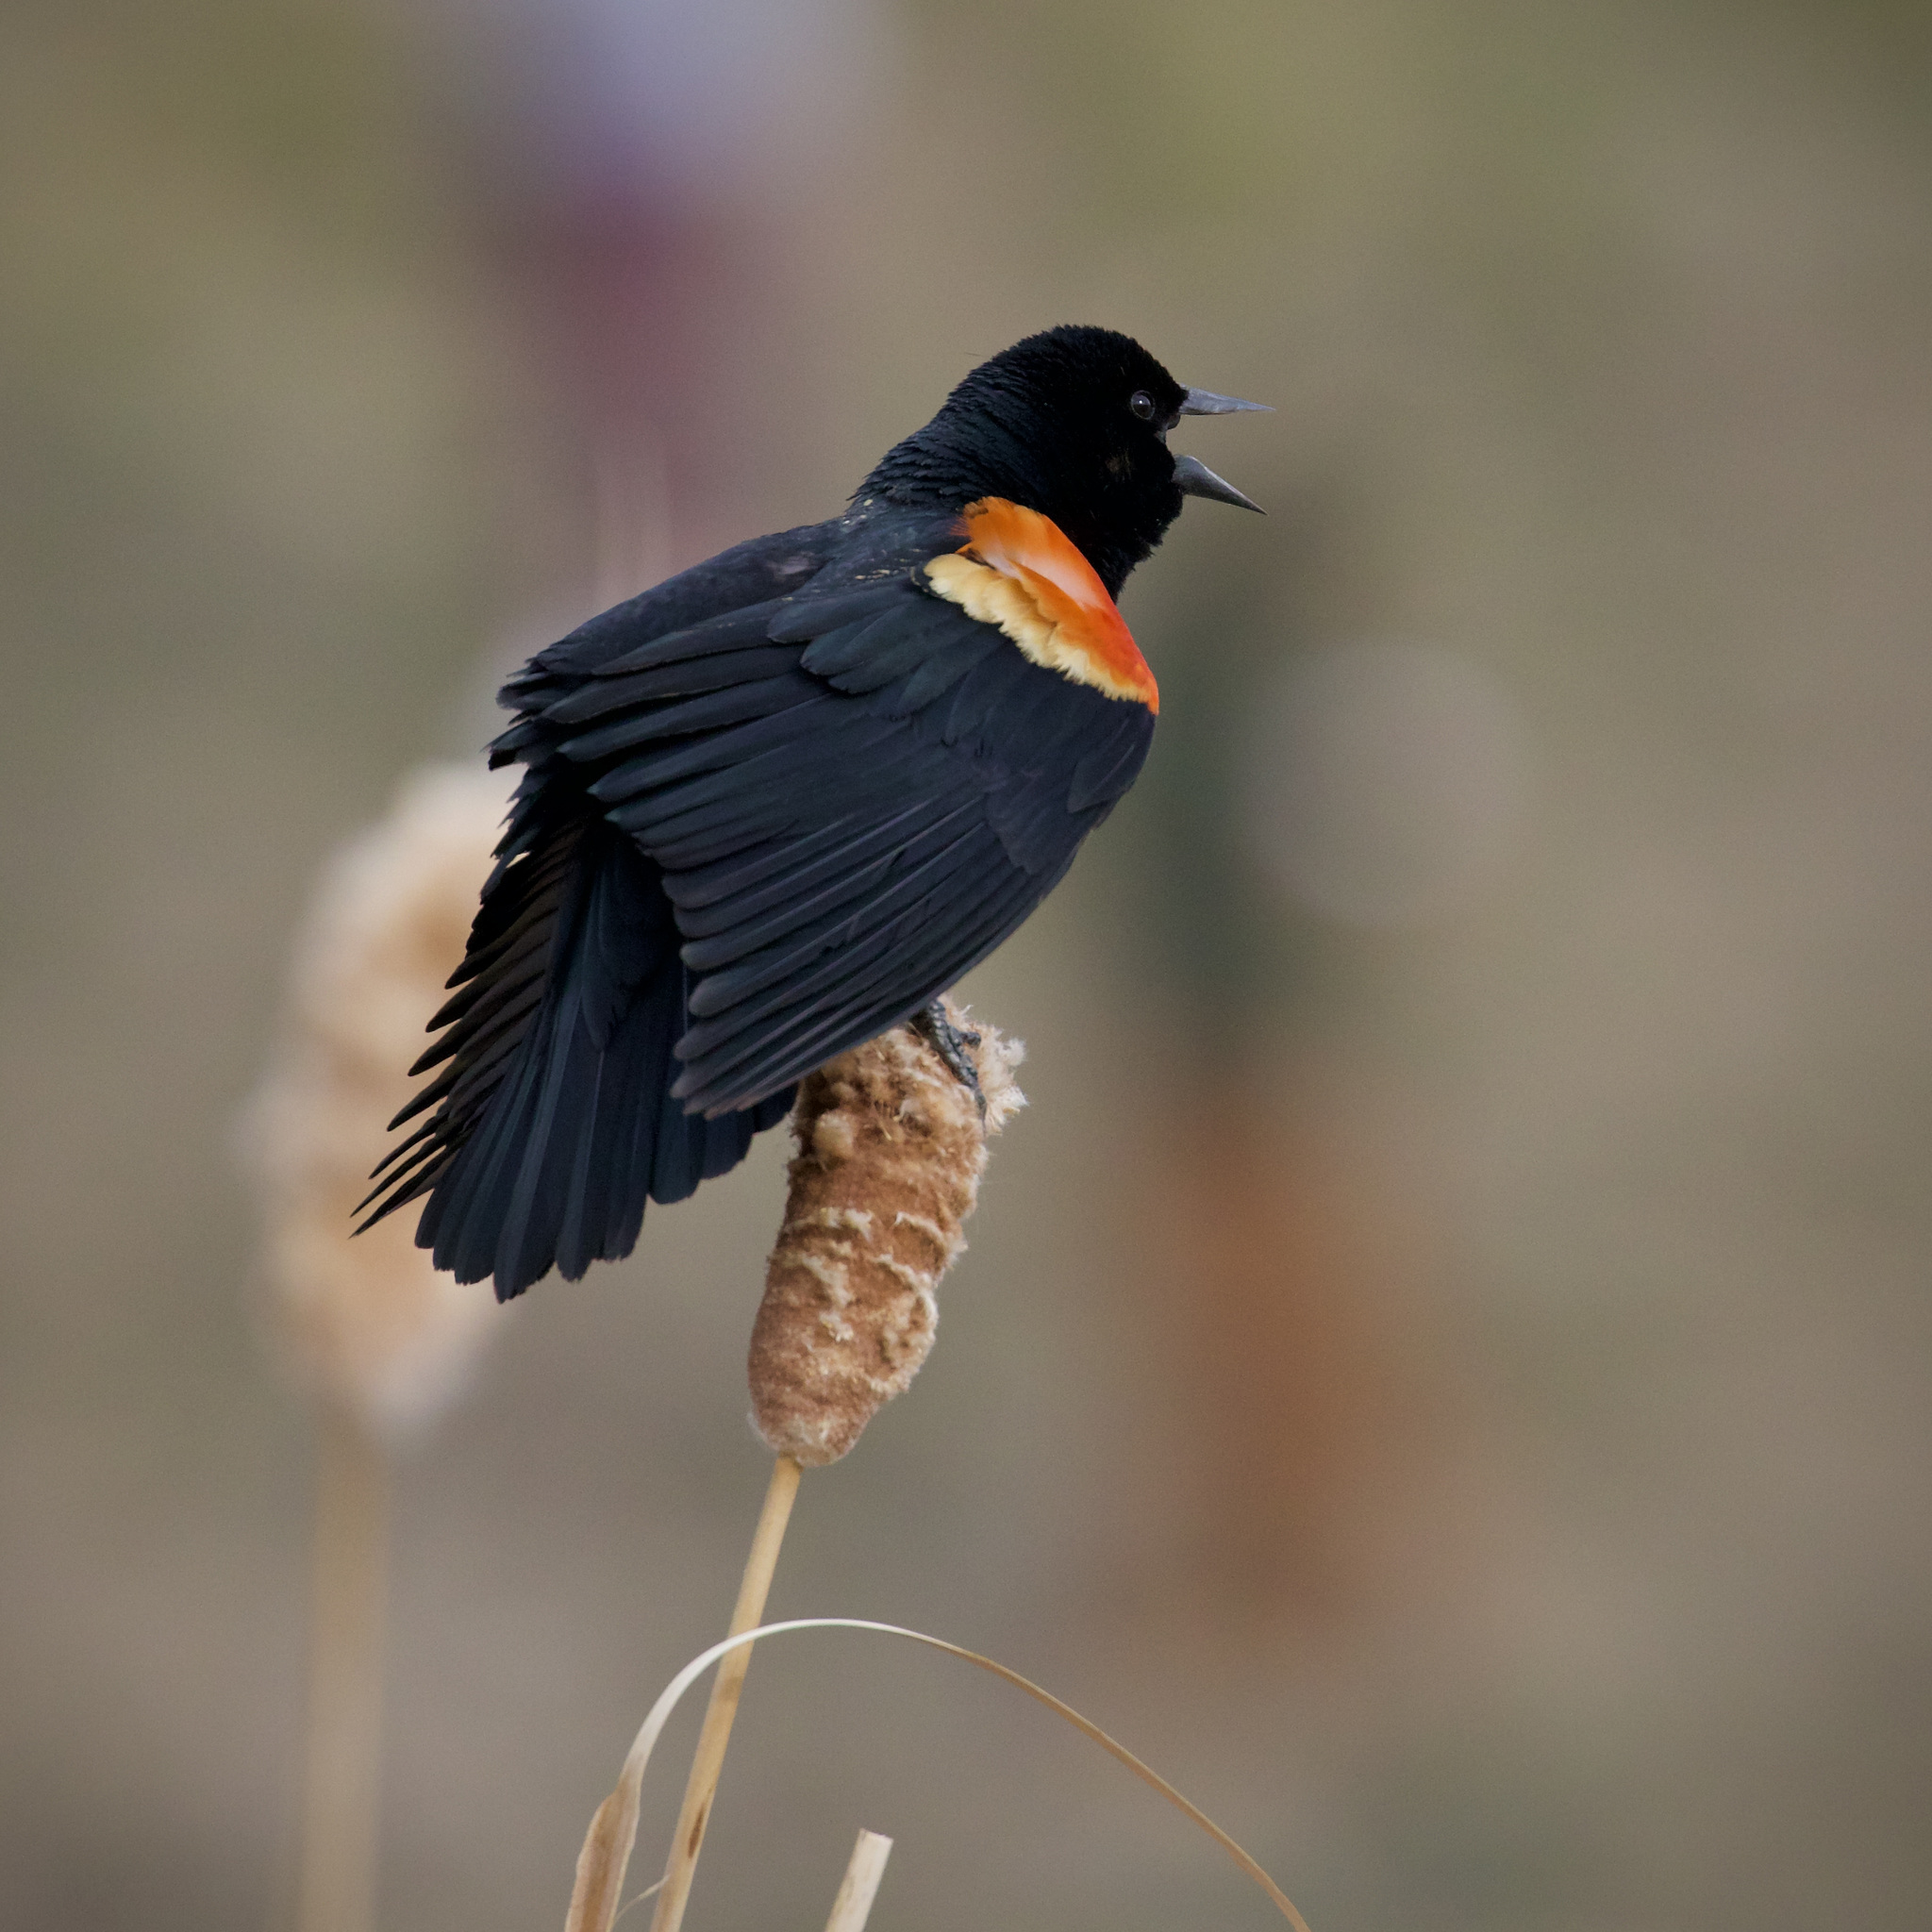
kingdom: Animalia
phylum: Chordata
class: Aves
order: Passeriformes
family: Icteridae
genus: Agelaius
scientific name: Agelaius phoeniceus
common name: Red-winged blackbird
